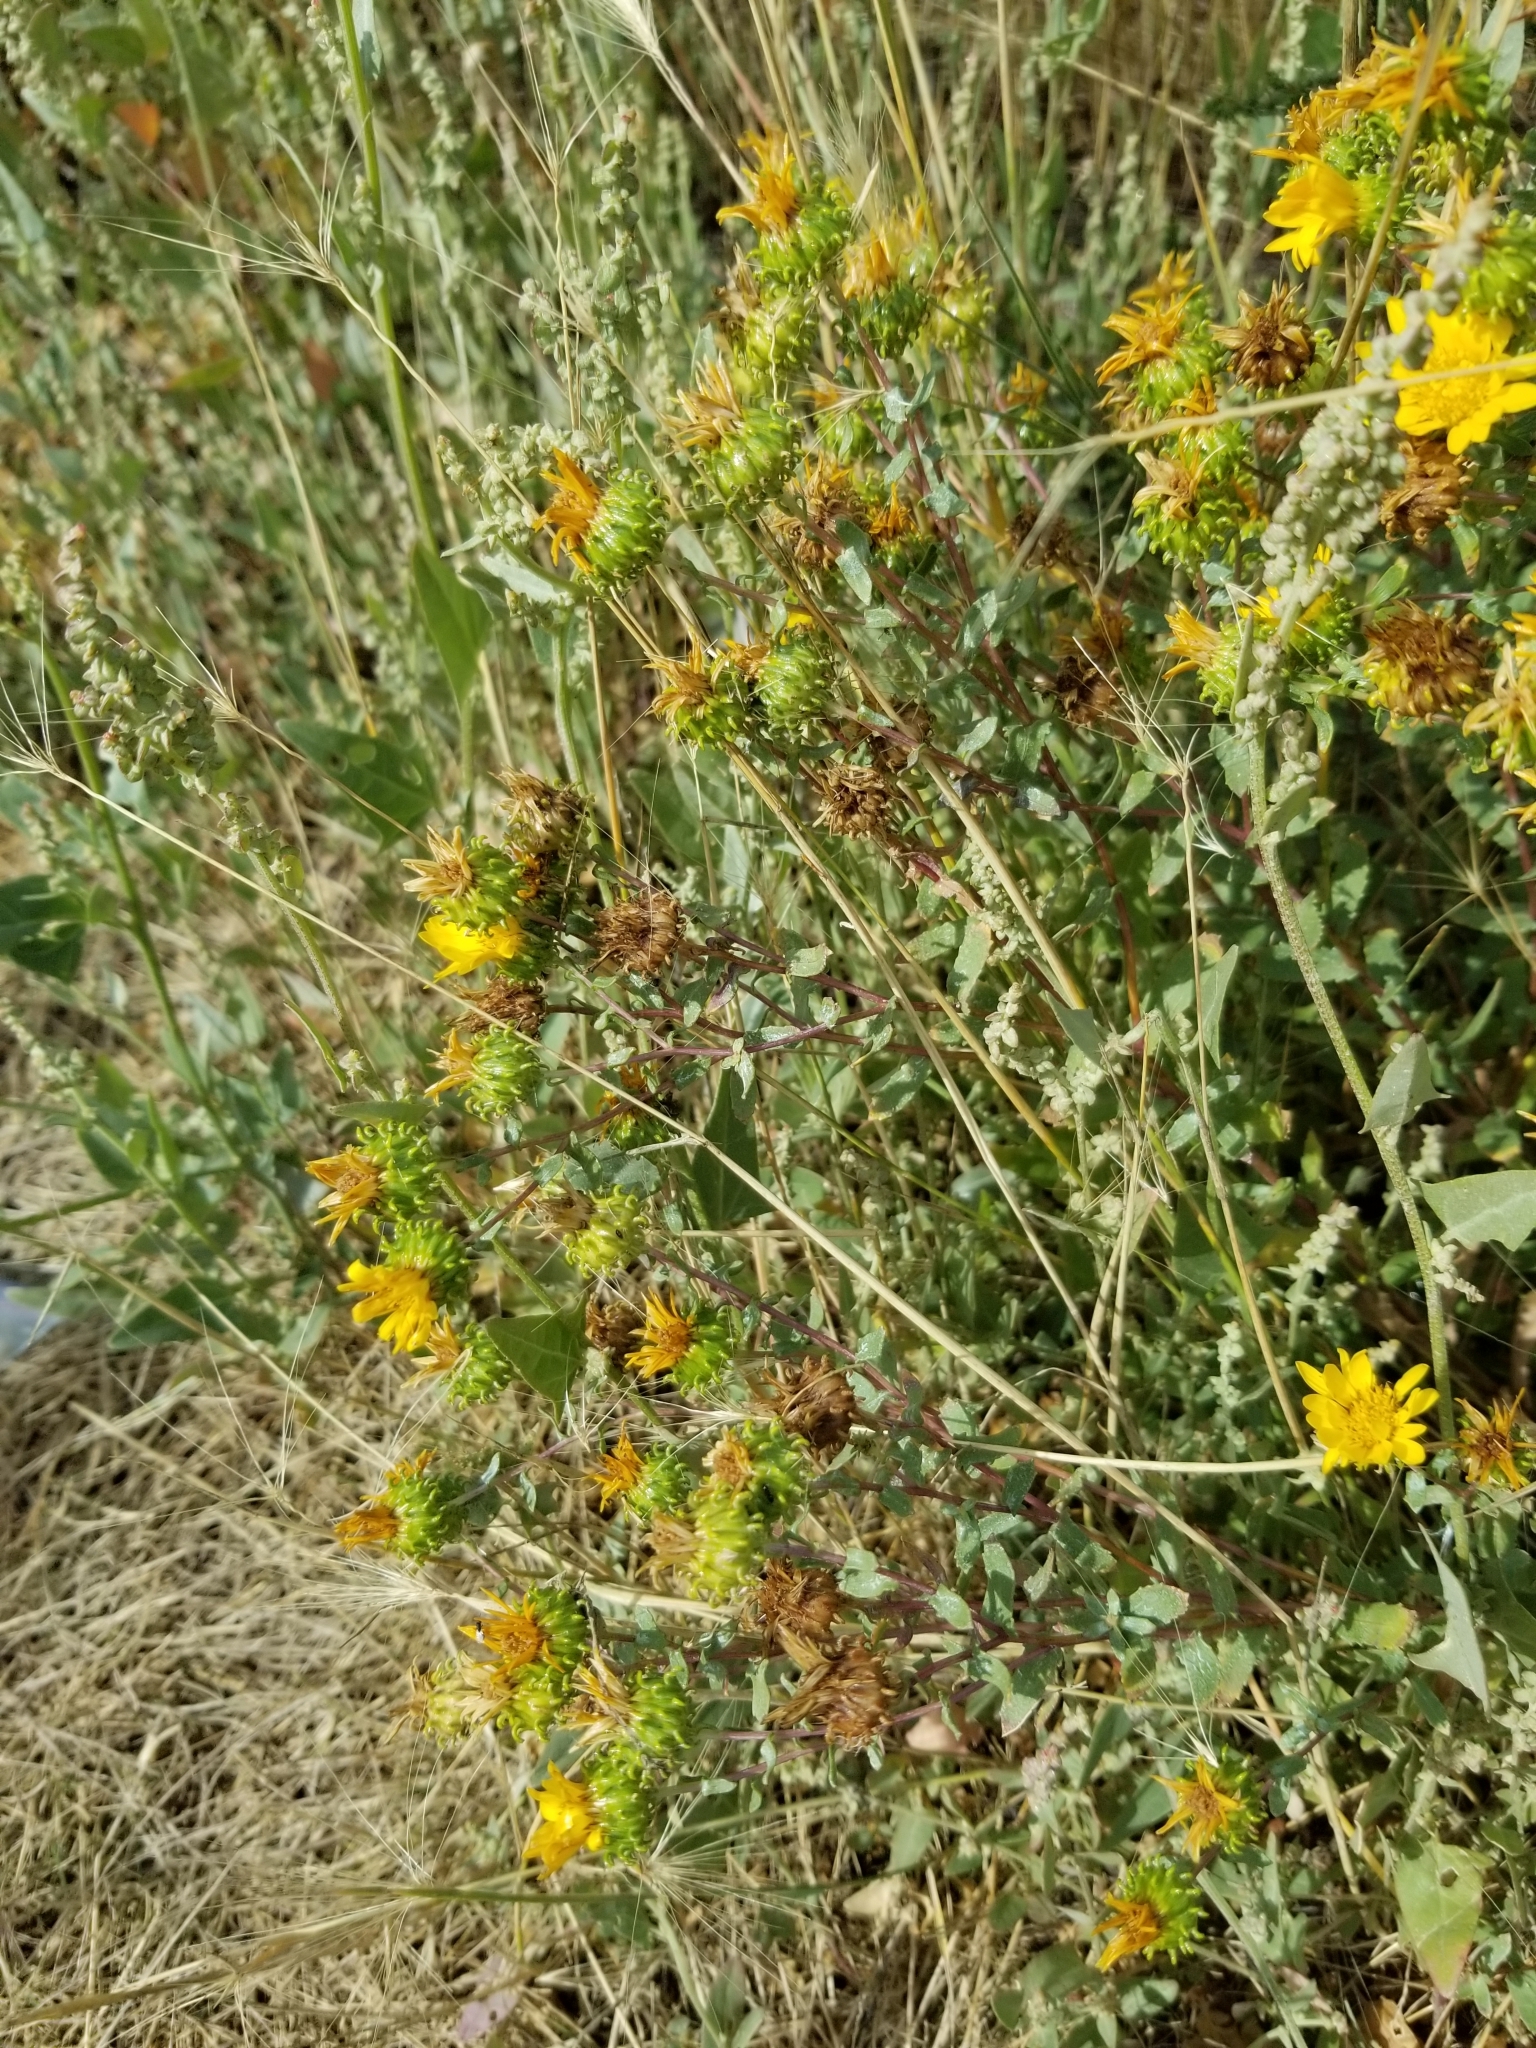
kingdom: Plantae
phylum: Tracheophyta
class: Magnoliopsida
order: Asterales
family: Asteraceae
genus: Grindelia
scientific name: Grindelia squarrosa
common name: Curly-cup gumweed
